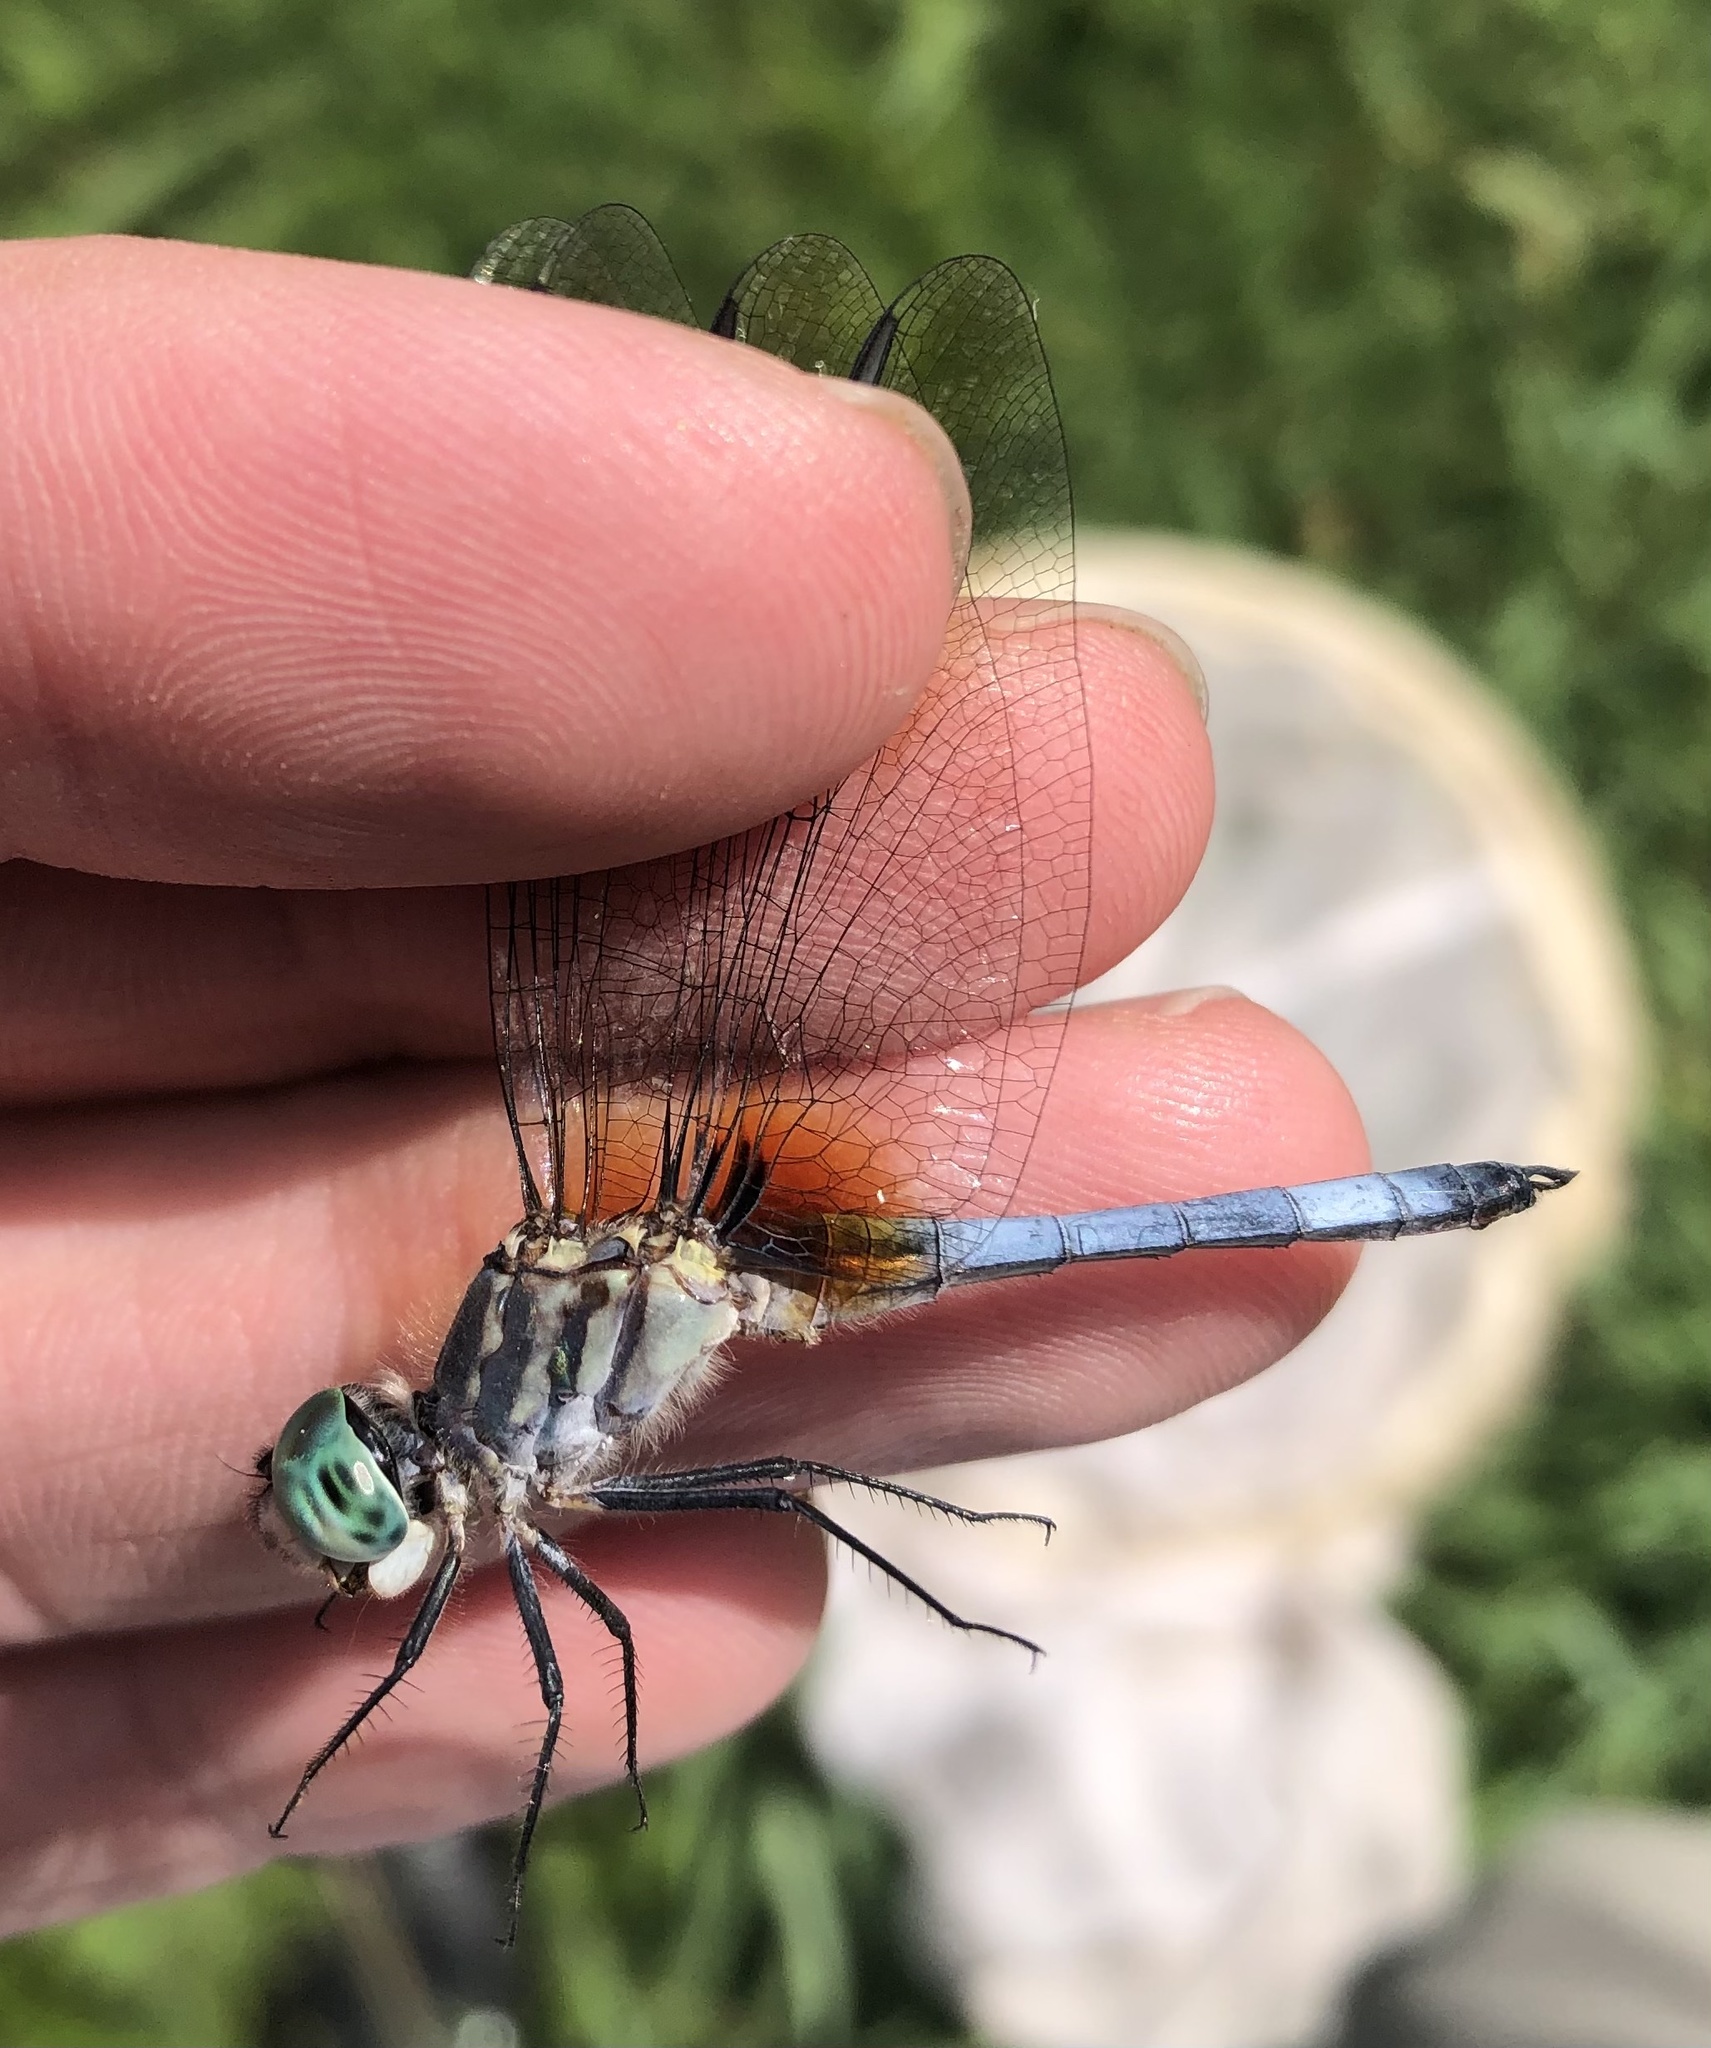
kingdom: Animalia
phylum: Arthropoda
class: Insecta
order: Odonata
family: Libellulidae
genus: Pachydiplax
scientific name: Pachydiplax longipennis
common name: Blue dasher
